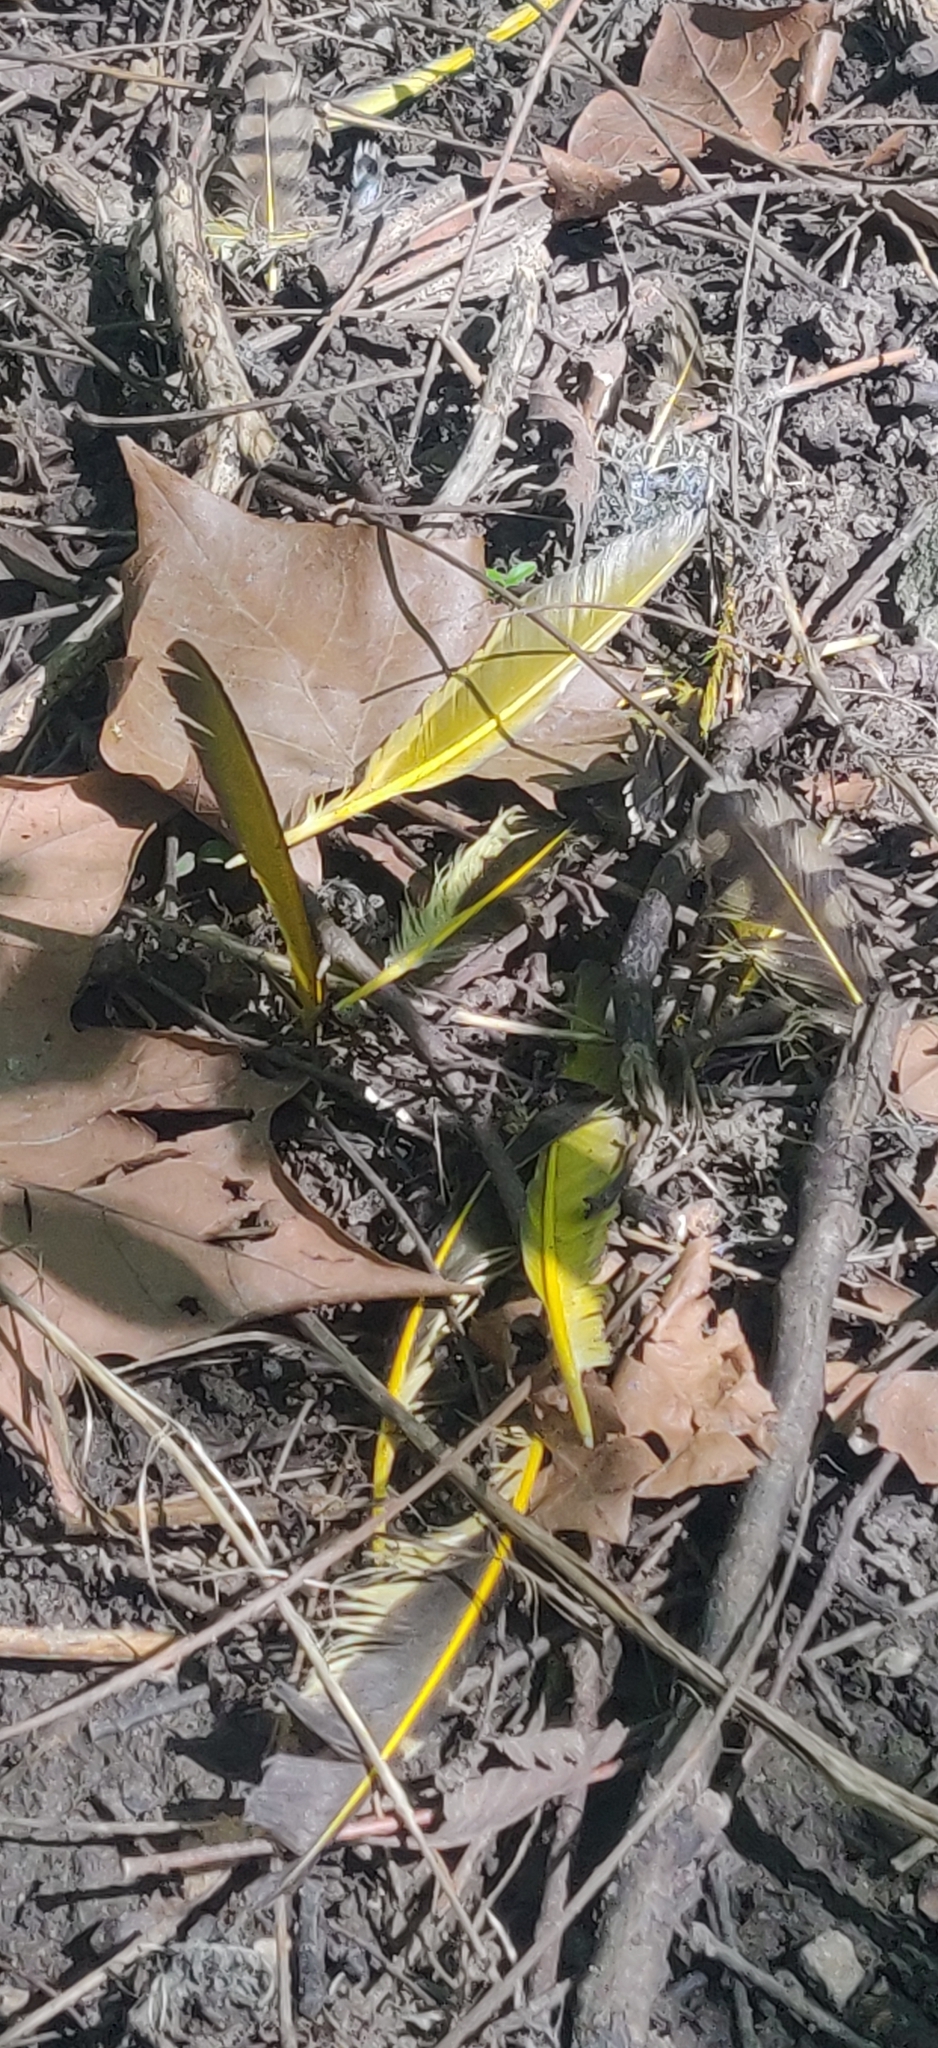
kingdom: Animalia
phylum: Chordata
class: Aves
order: Piciformes
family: Picidae
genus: Colaptes
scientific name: Colaptes auratus
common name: Northern flicker
